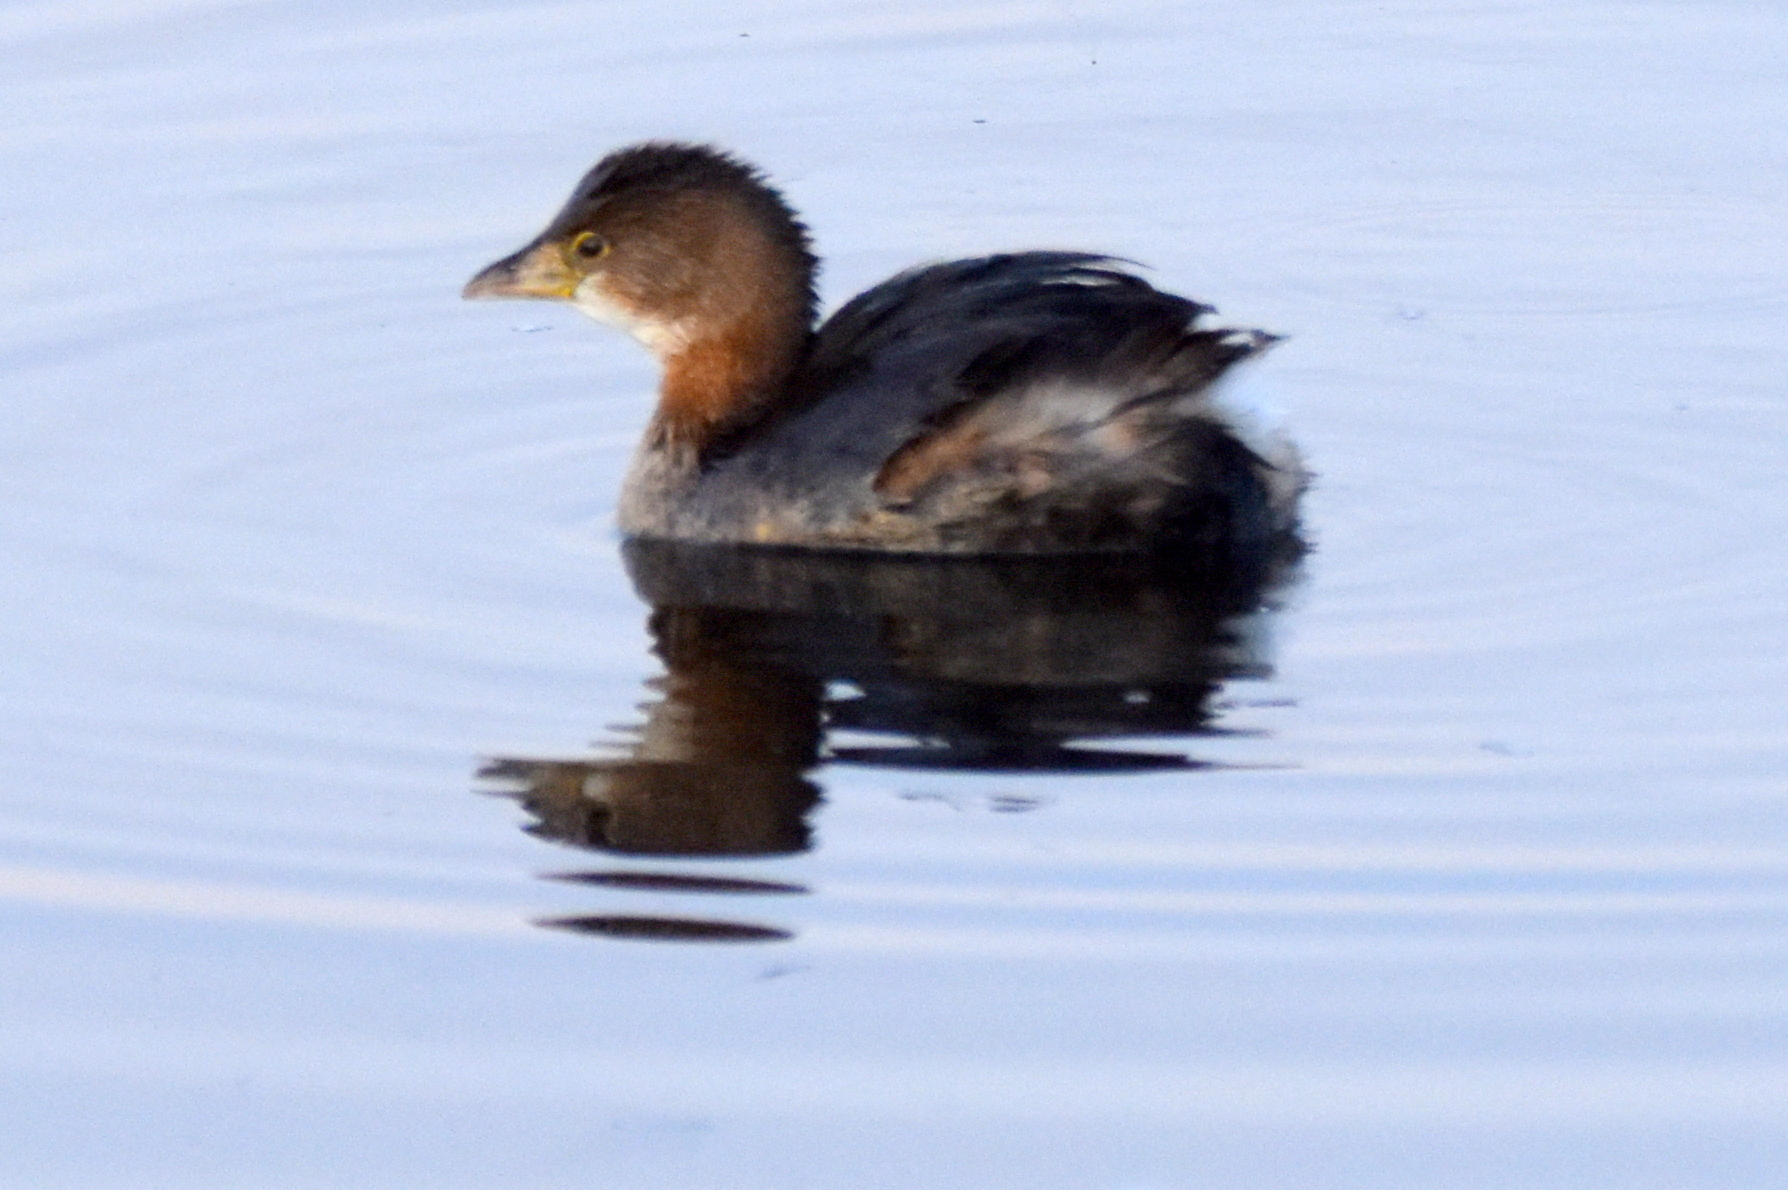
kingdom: Animalia
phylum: Chordata
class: Aves
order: Podicipediformes
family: Podicipedidae
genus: Podilymbus
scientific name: Podilymbus podiceps
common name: Pied-billed grebe
